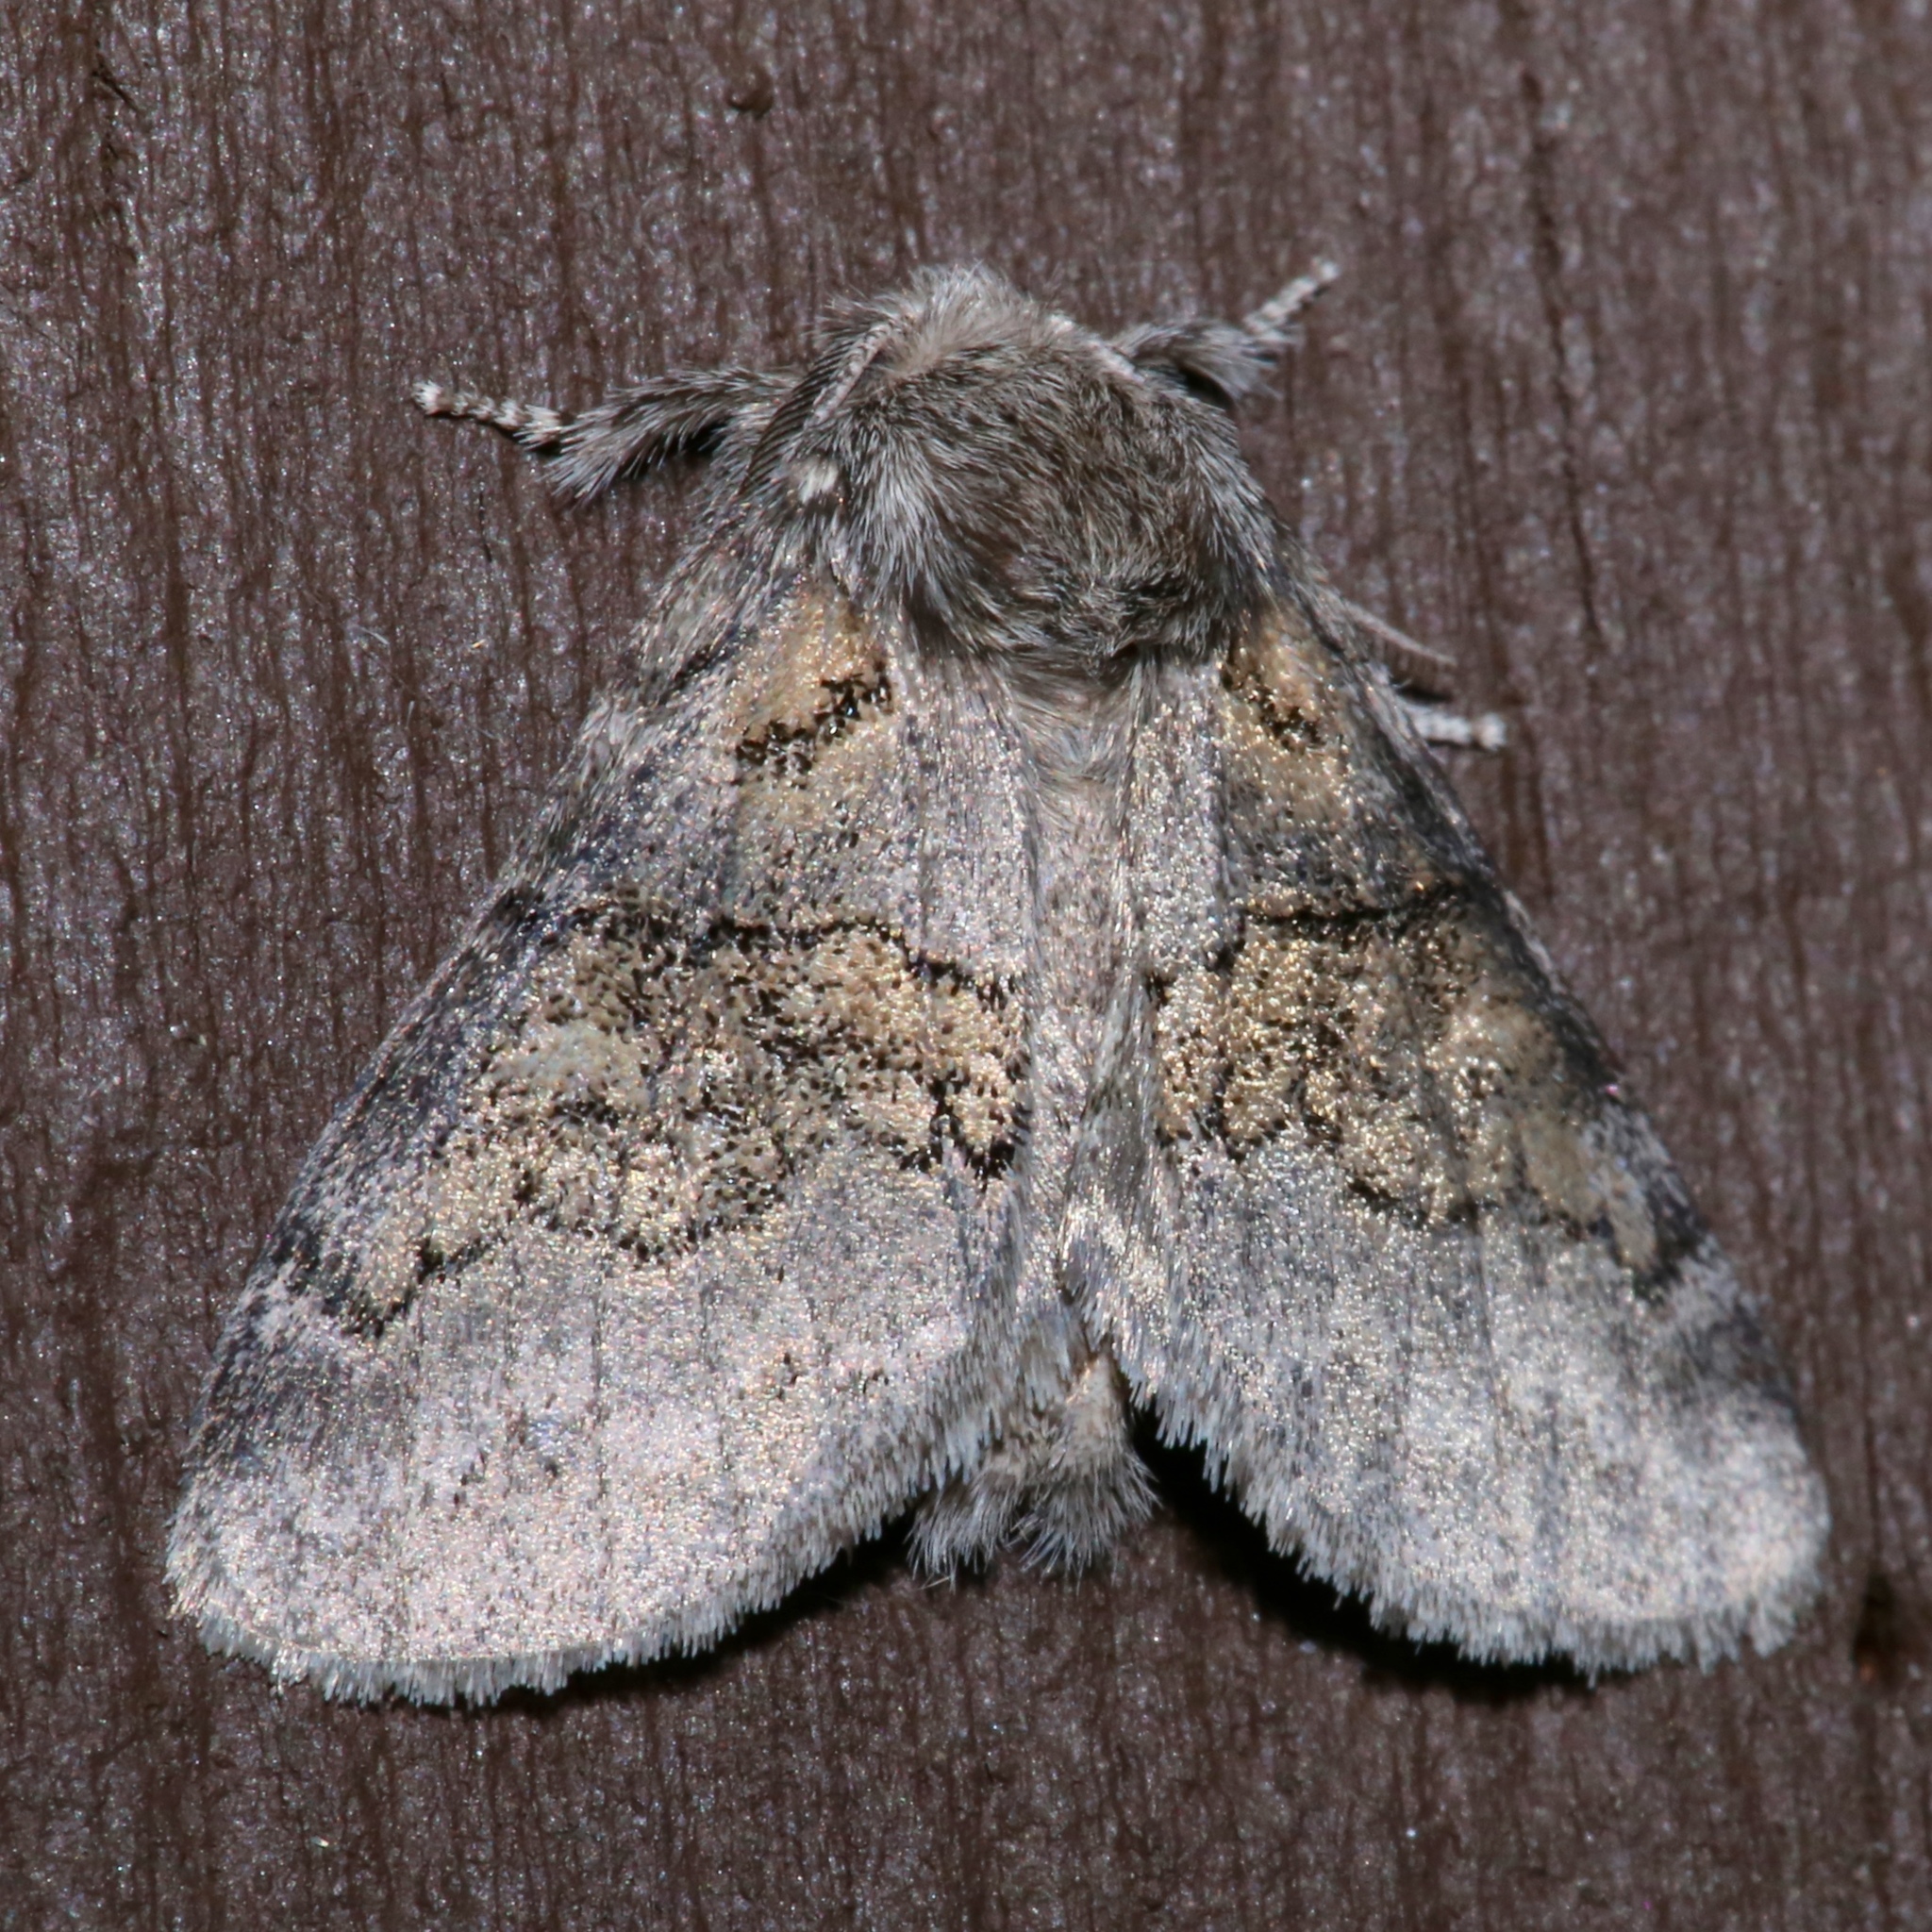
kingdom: Animalia
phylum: Arthropoda
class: Insecta
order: Lepidoptera
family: Notodontidae
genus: Gluphisia
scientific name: Gluphisia septentrionis
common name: Common gluphisia
